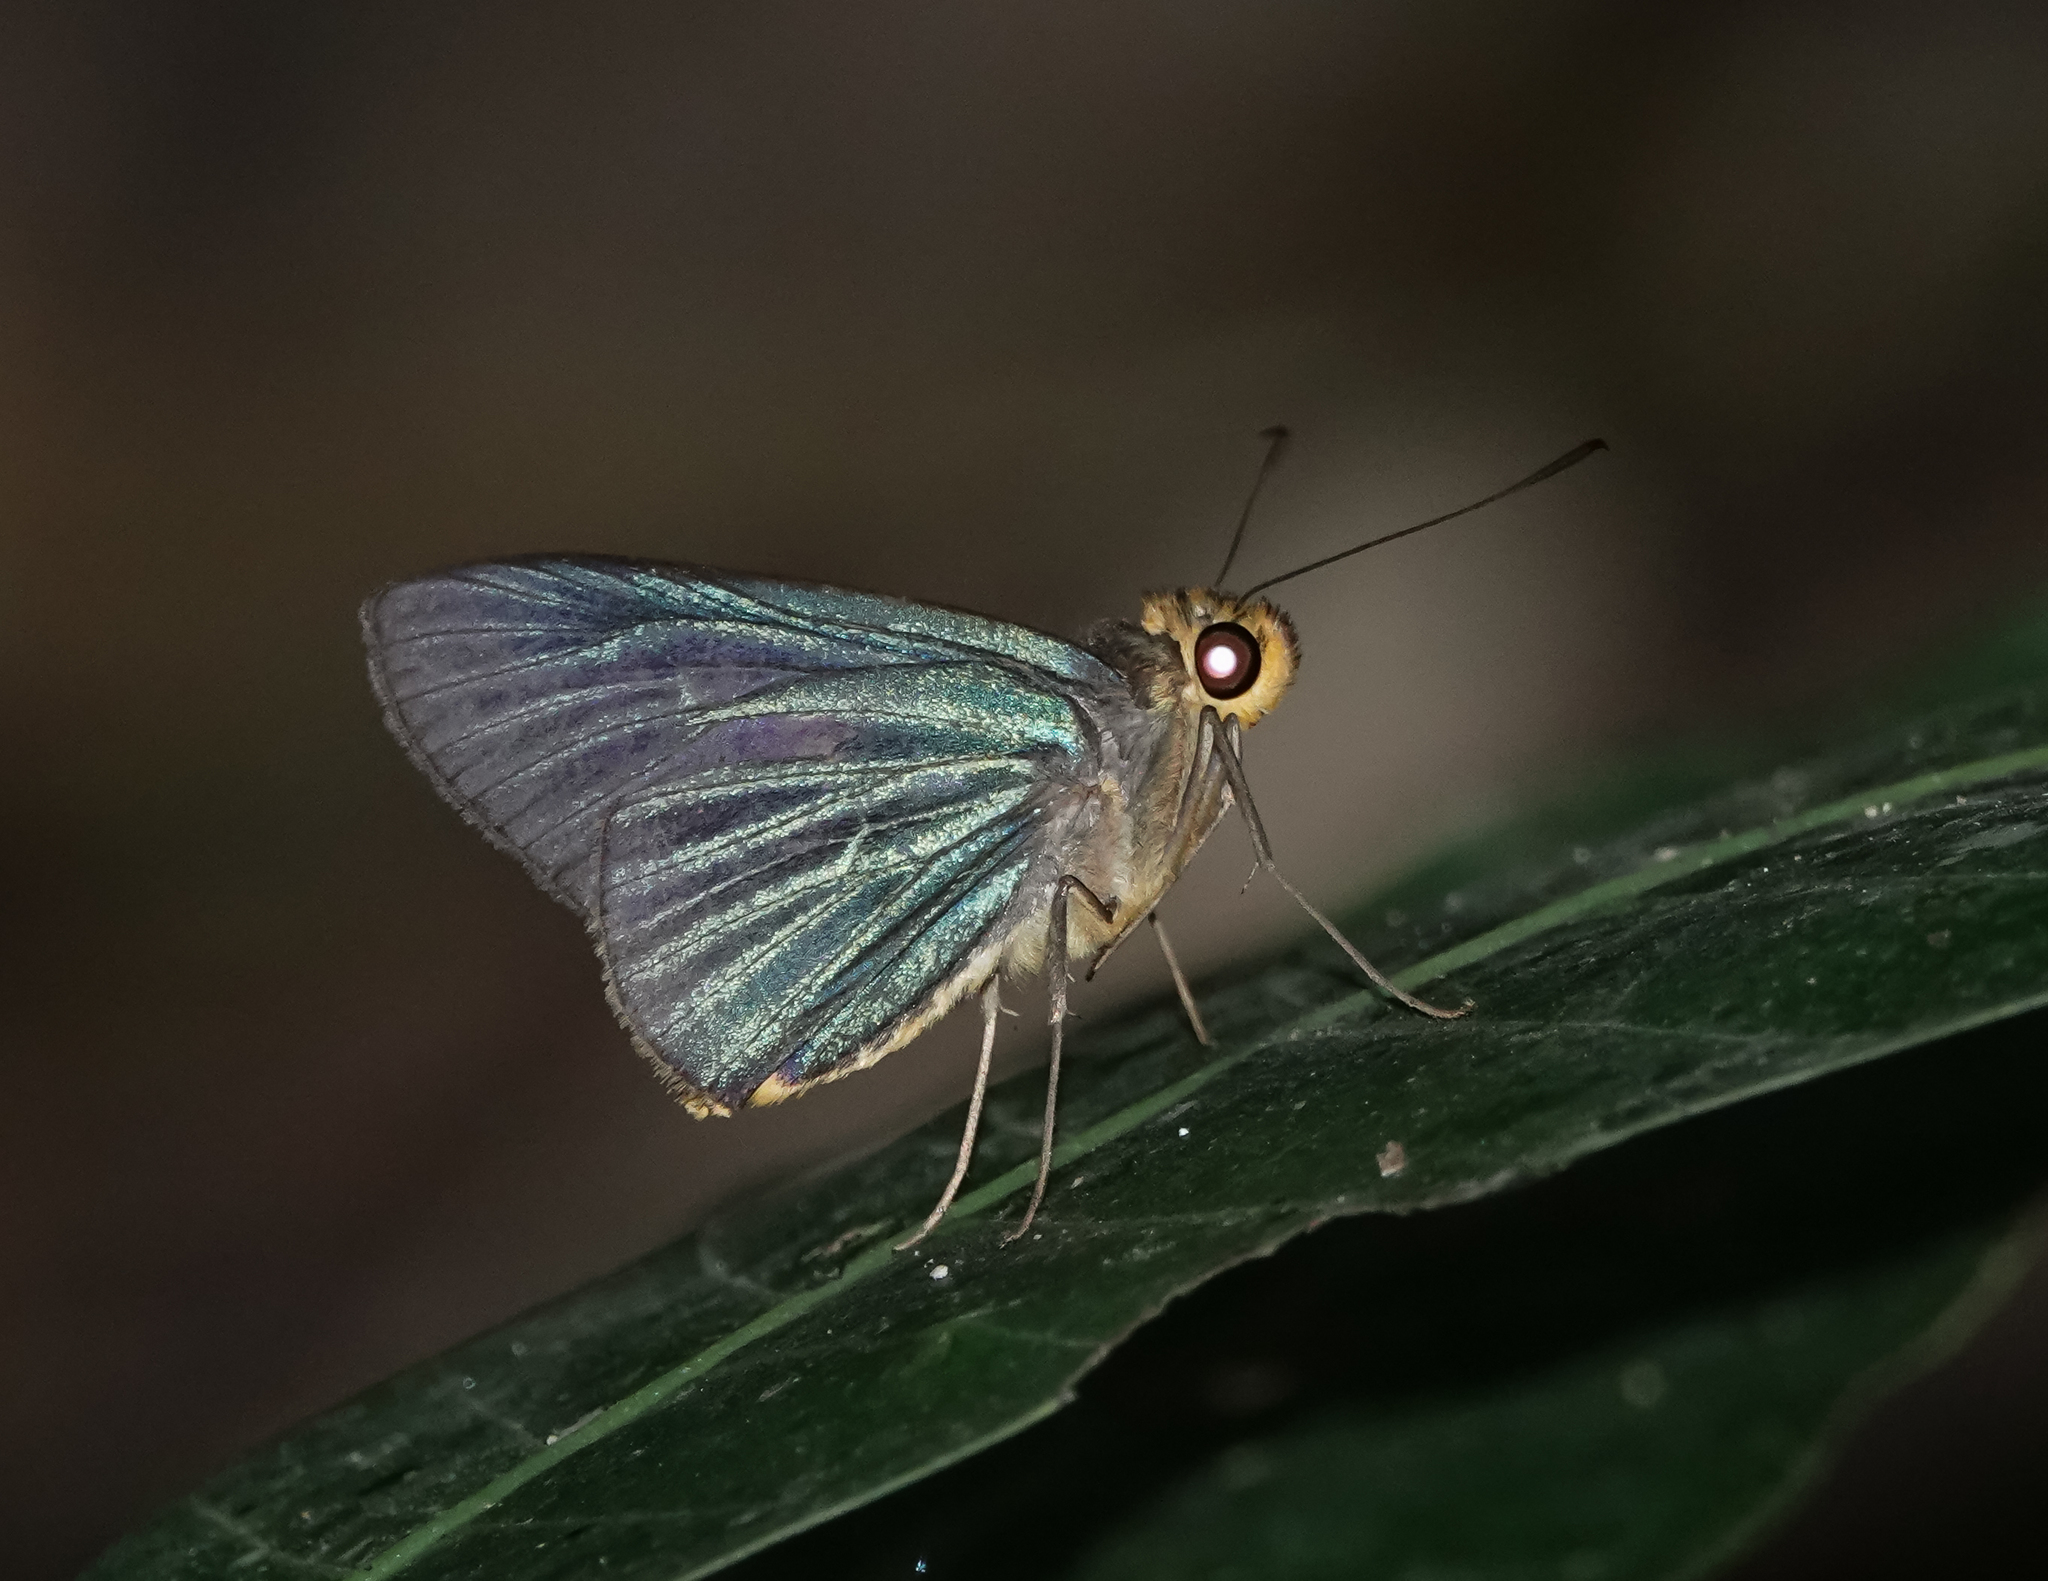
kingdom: Animalia
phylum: Arthropoda
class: Insecta
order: Lepidoptera
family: Hesperiidae
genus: Pirdana
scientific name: Pirdana hyela
